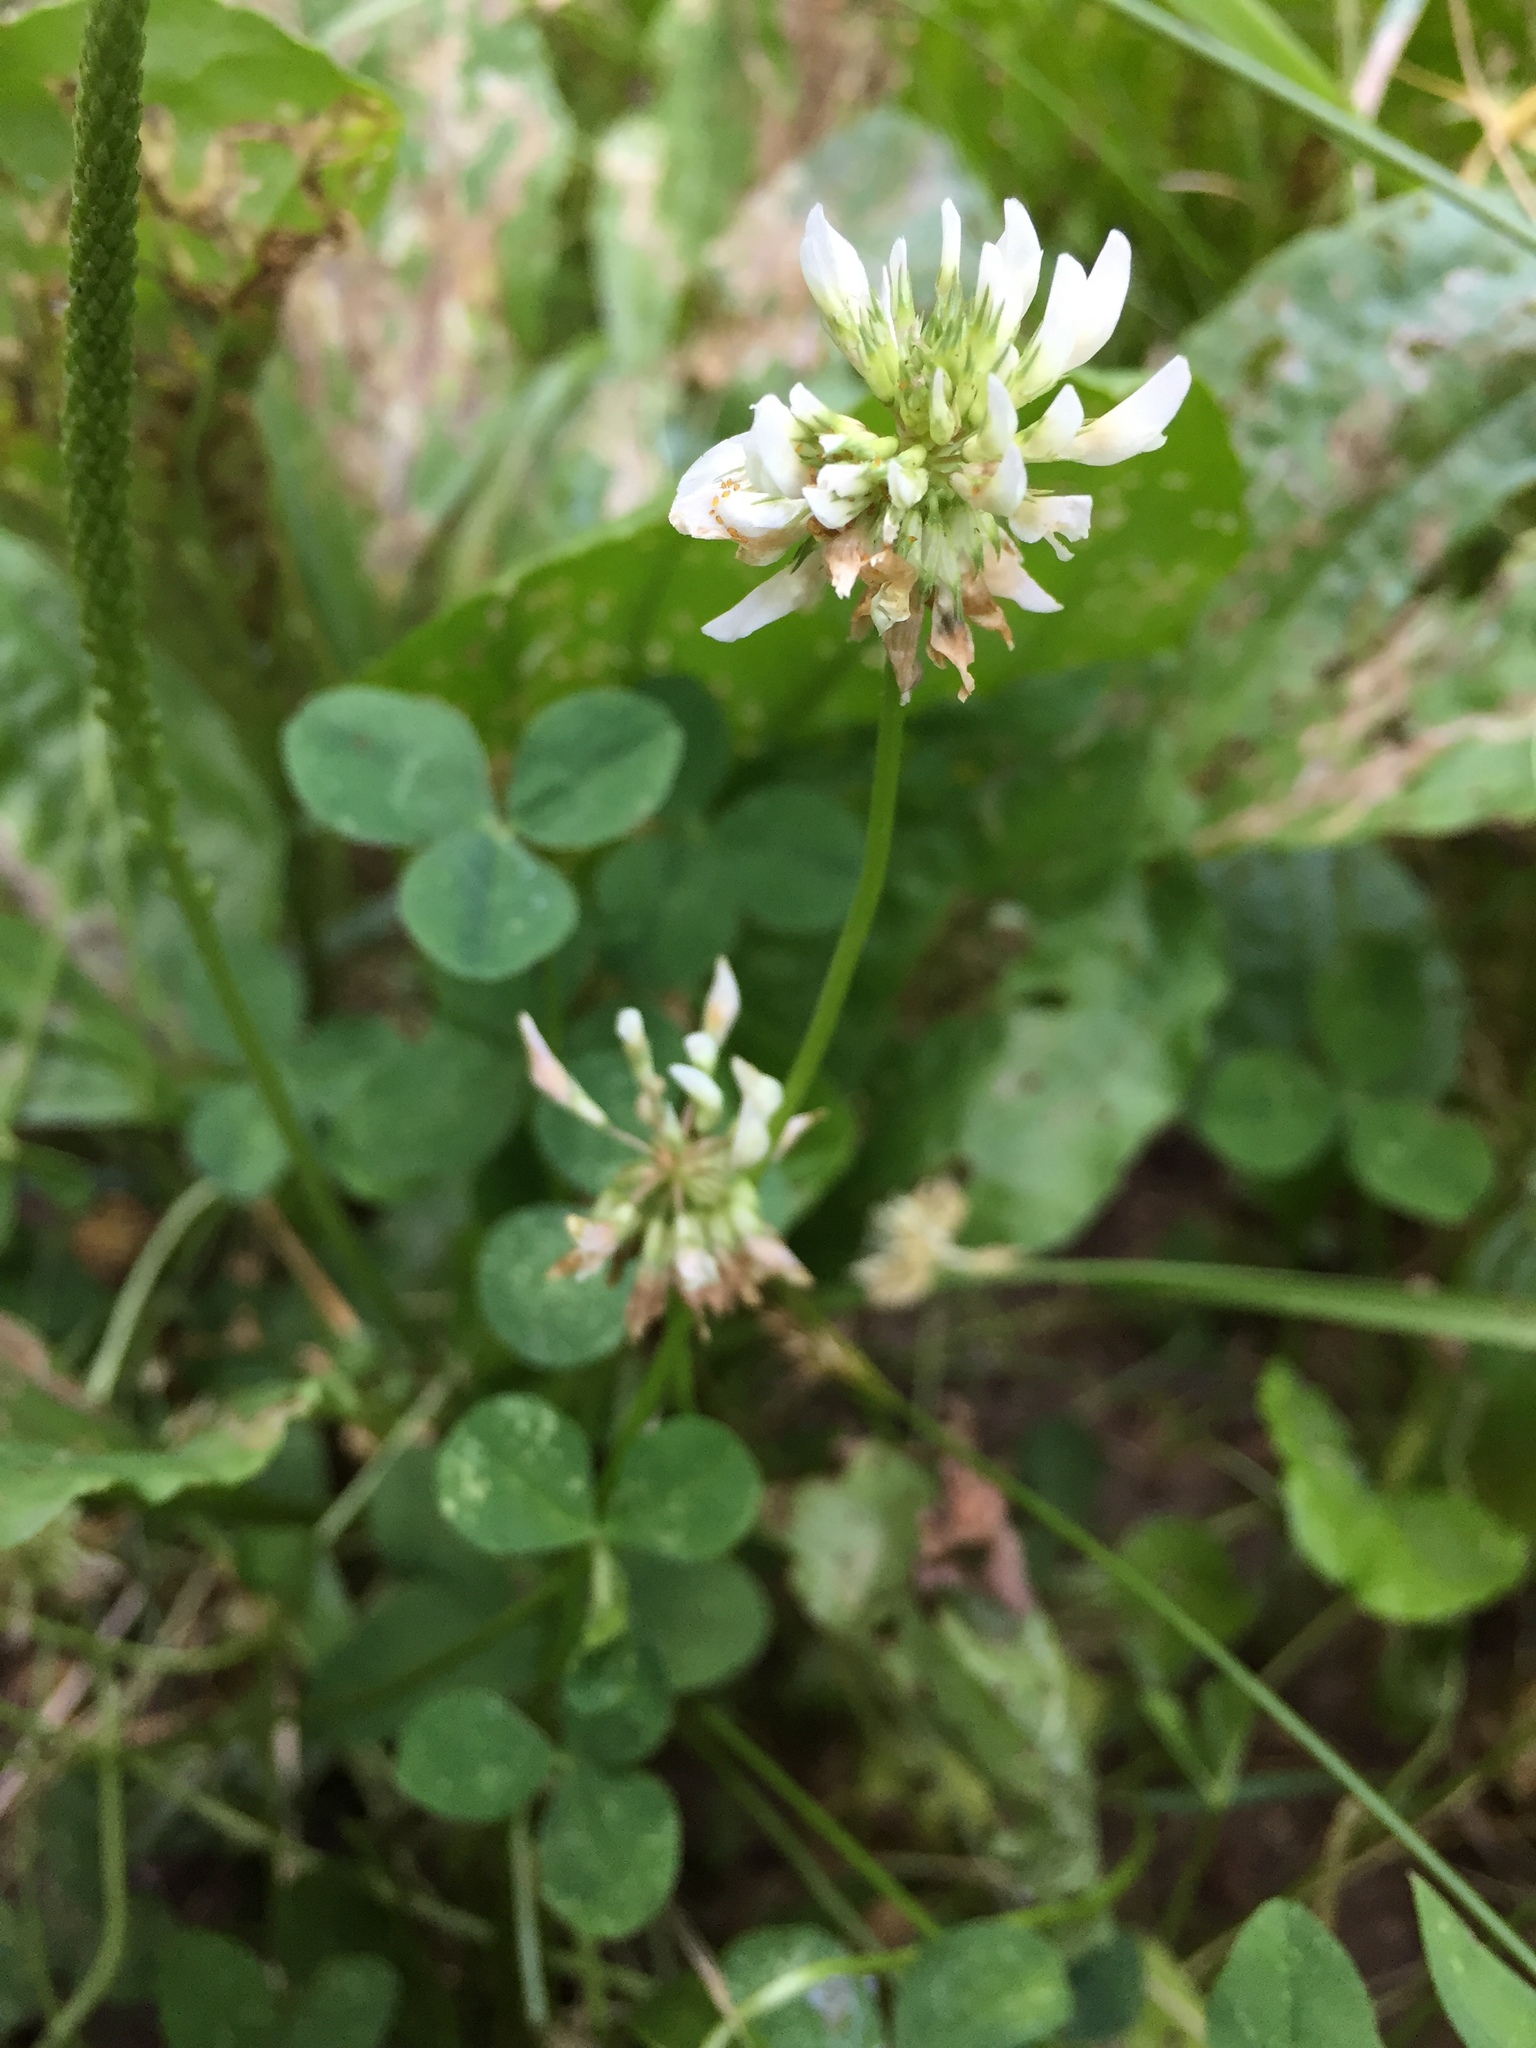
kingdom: Plantae
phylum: Tracheophyta
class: Magnoliopsida
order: Fabales
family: Fabaceae
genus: Trifolium
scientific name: Trifolium repens
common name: White clover
